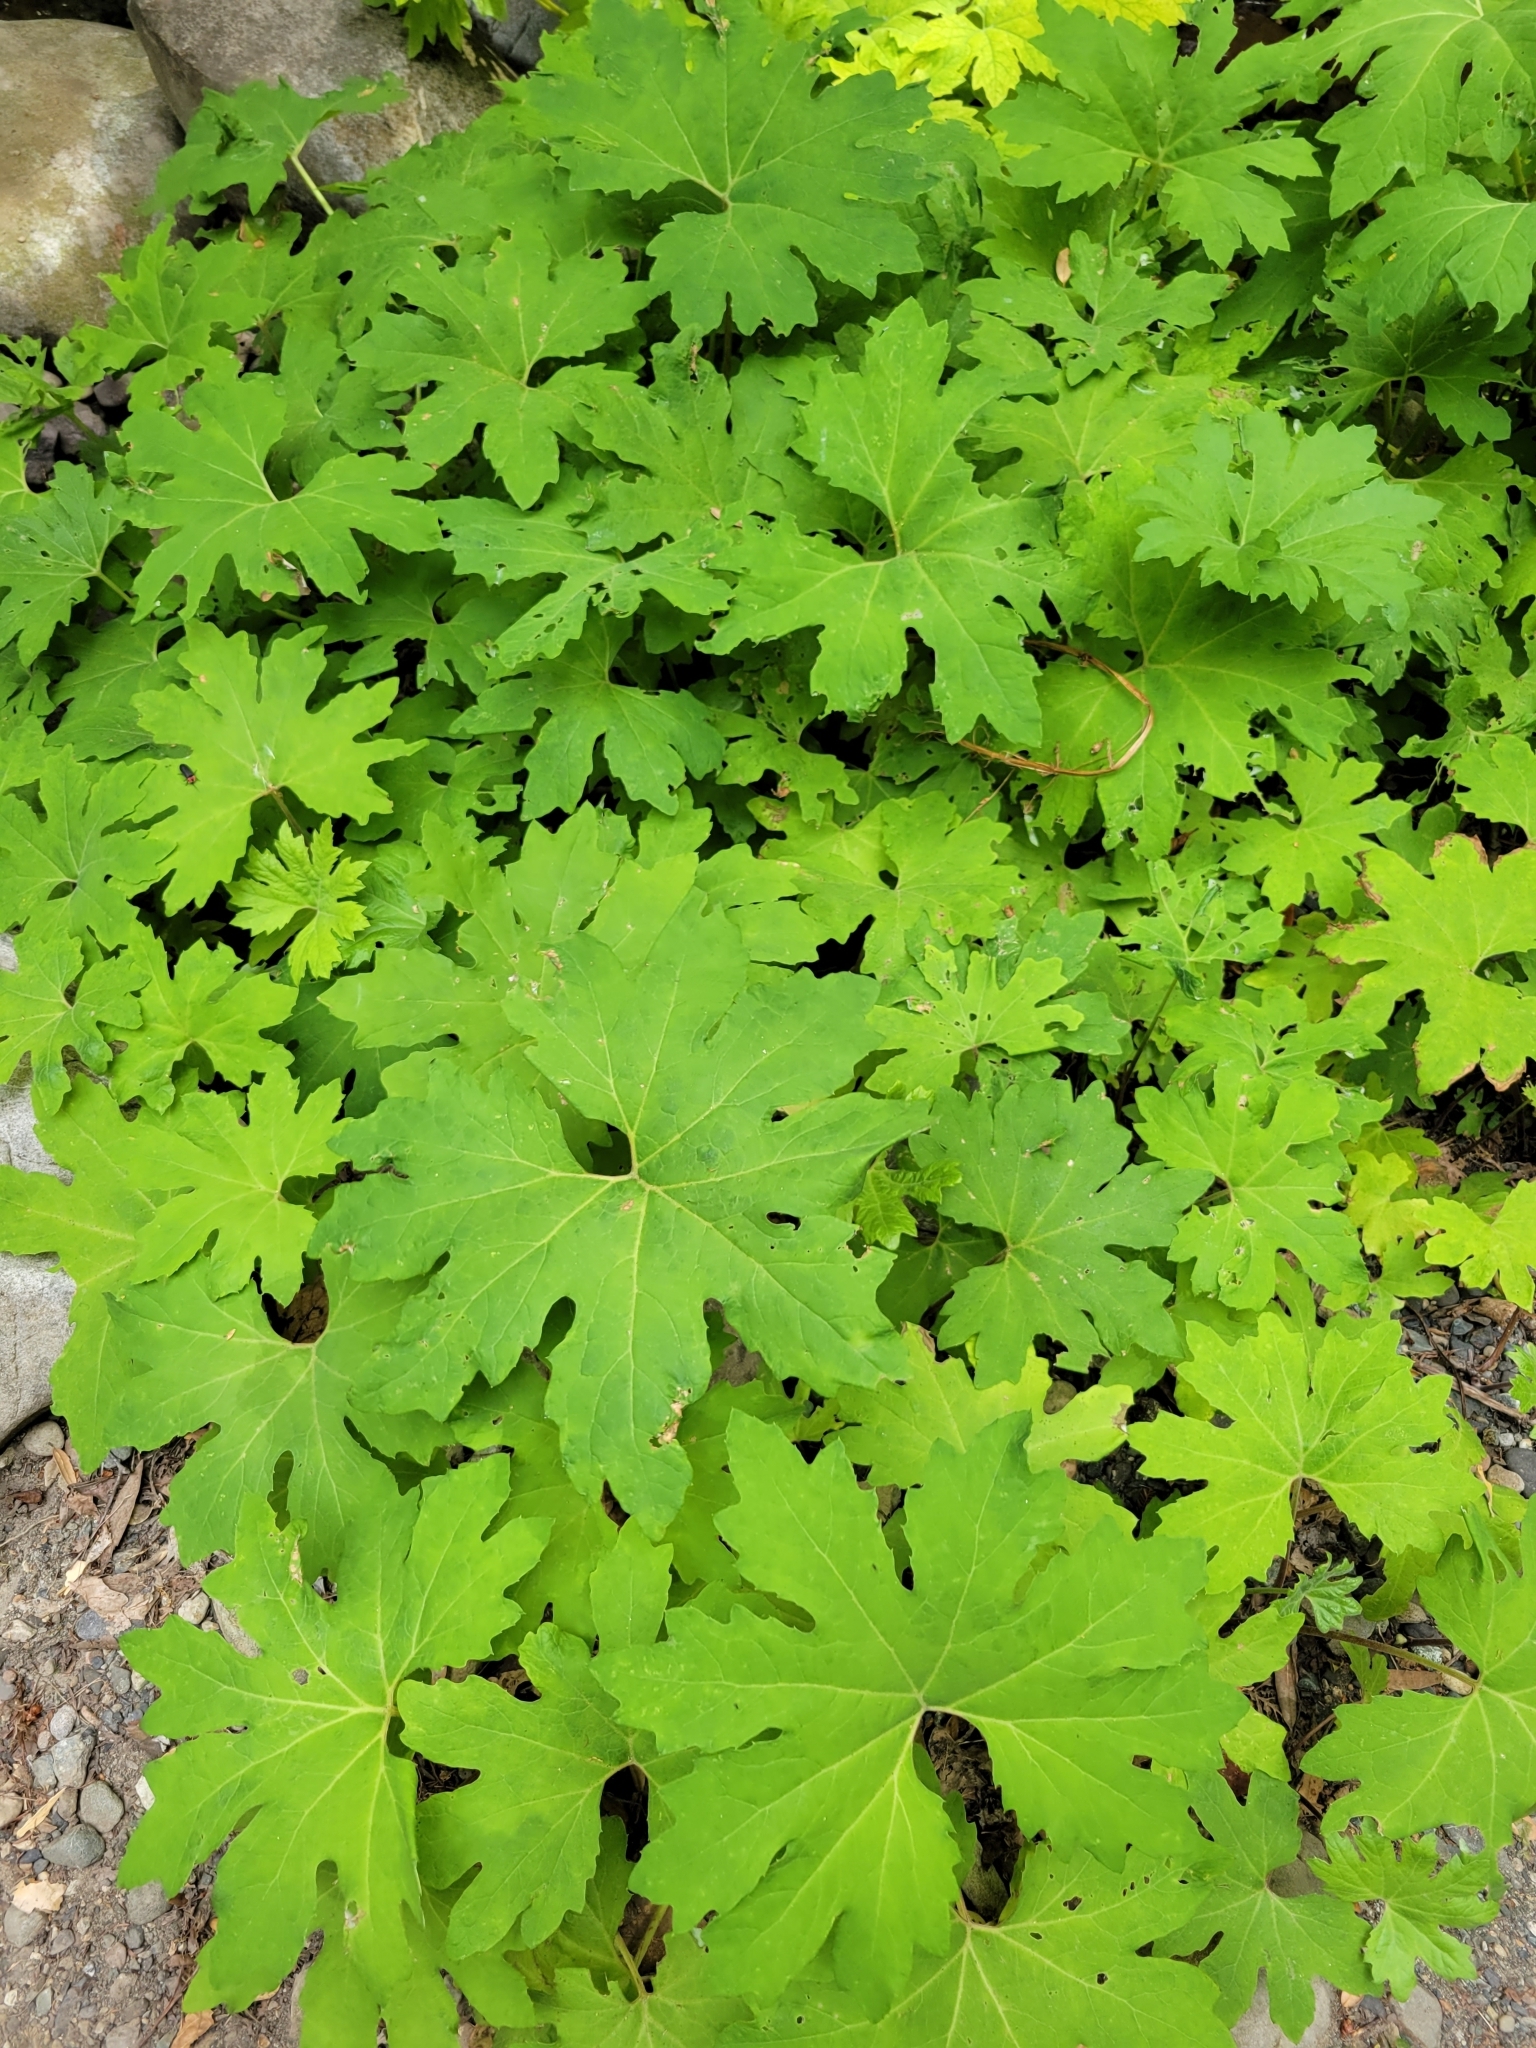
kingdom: Plantae
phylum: Tracheophyta
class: Magnoliopsida
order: Asterales
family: Asteraceae
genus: Petasites
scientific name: Petasites frigidus
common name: Arctic butterbur
